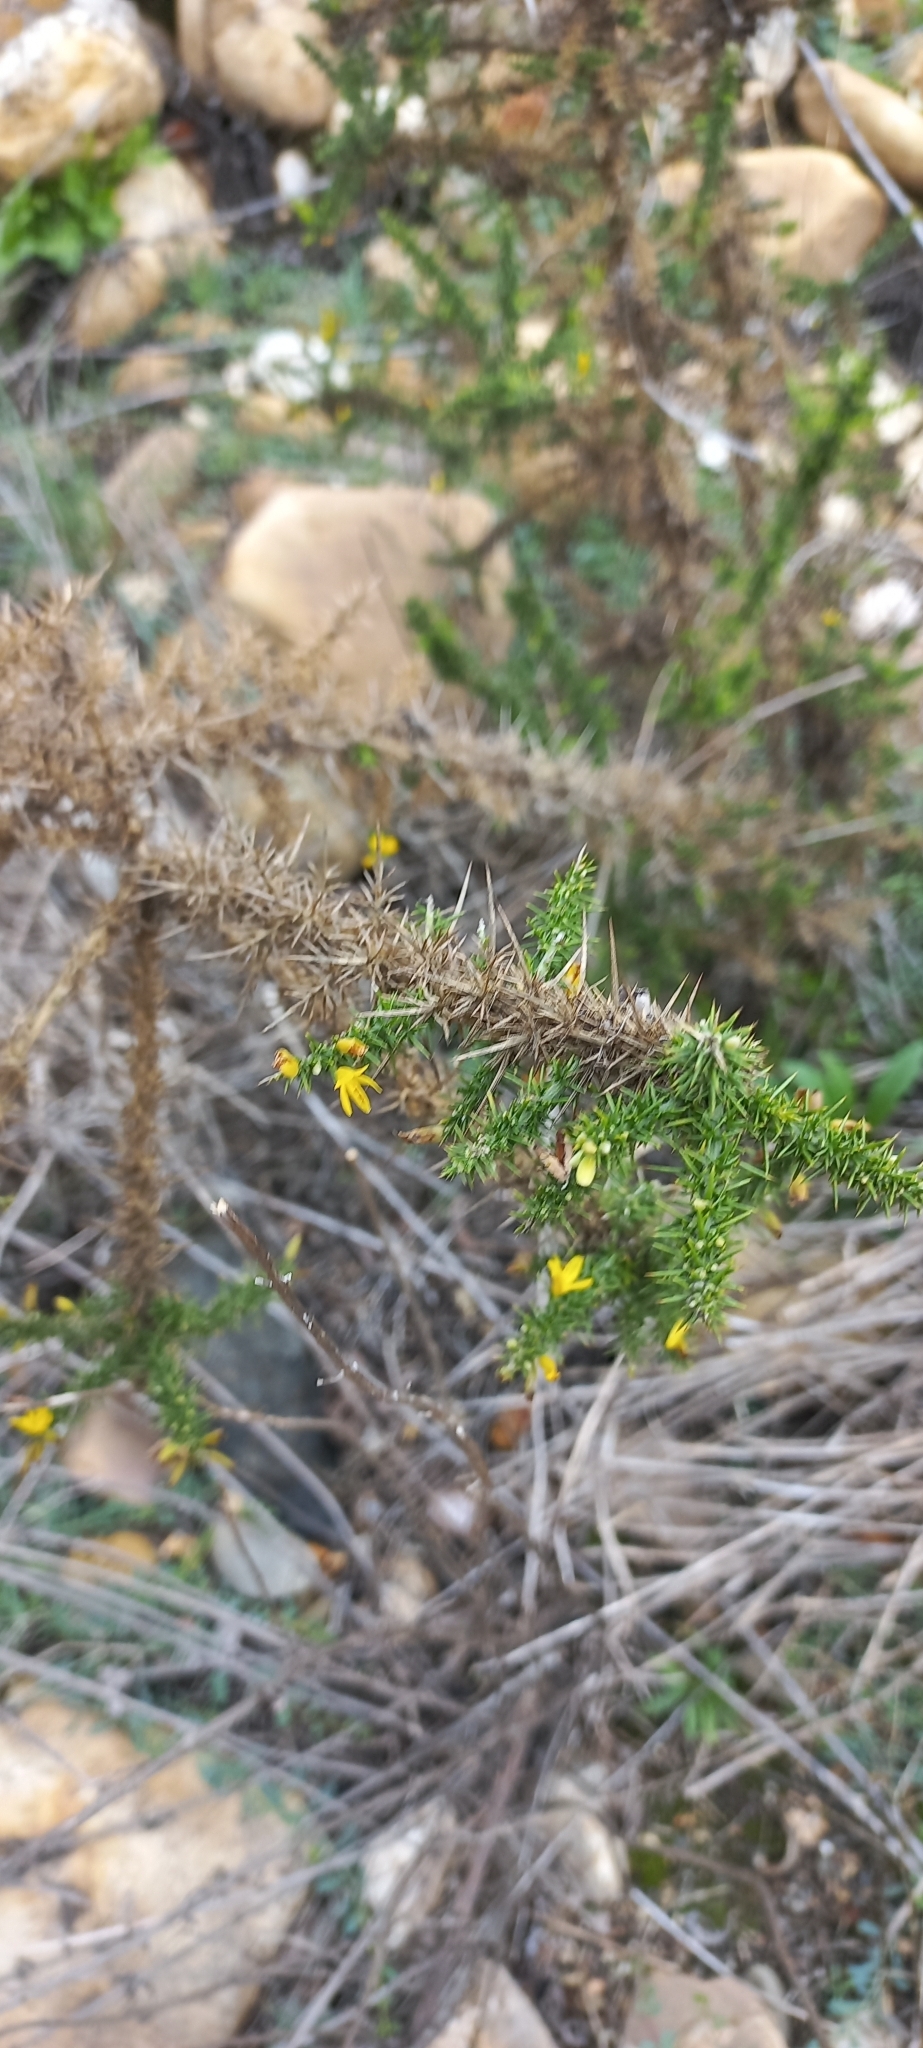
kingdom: Plantae
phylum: Tracheophyta
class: Magnoliopsida
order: Fabales
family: Fabaceae
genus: Ulex
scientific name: Ulex minor
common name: Dwarf gorse
